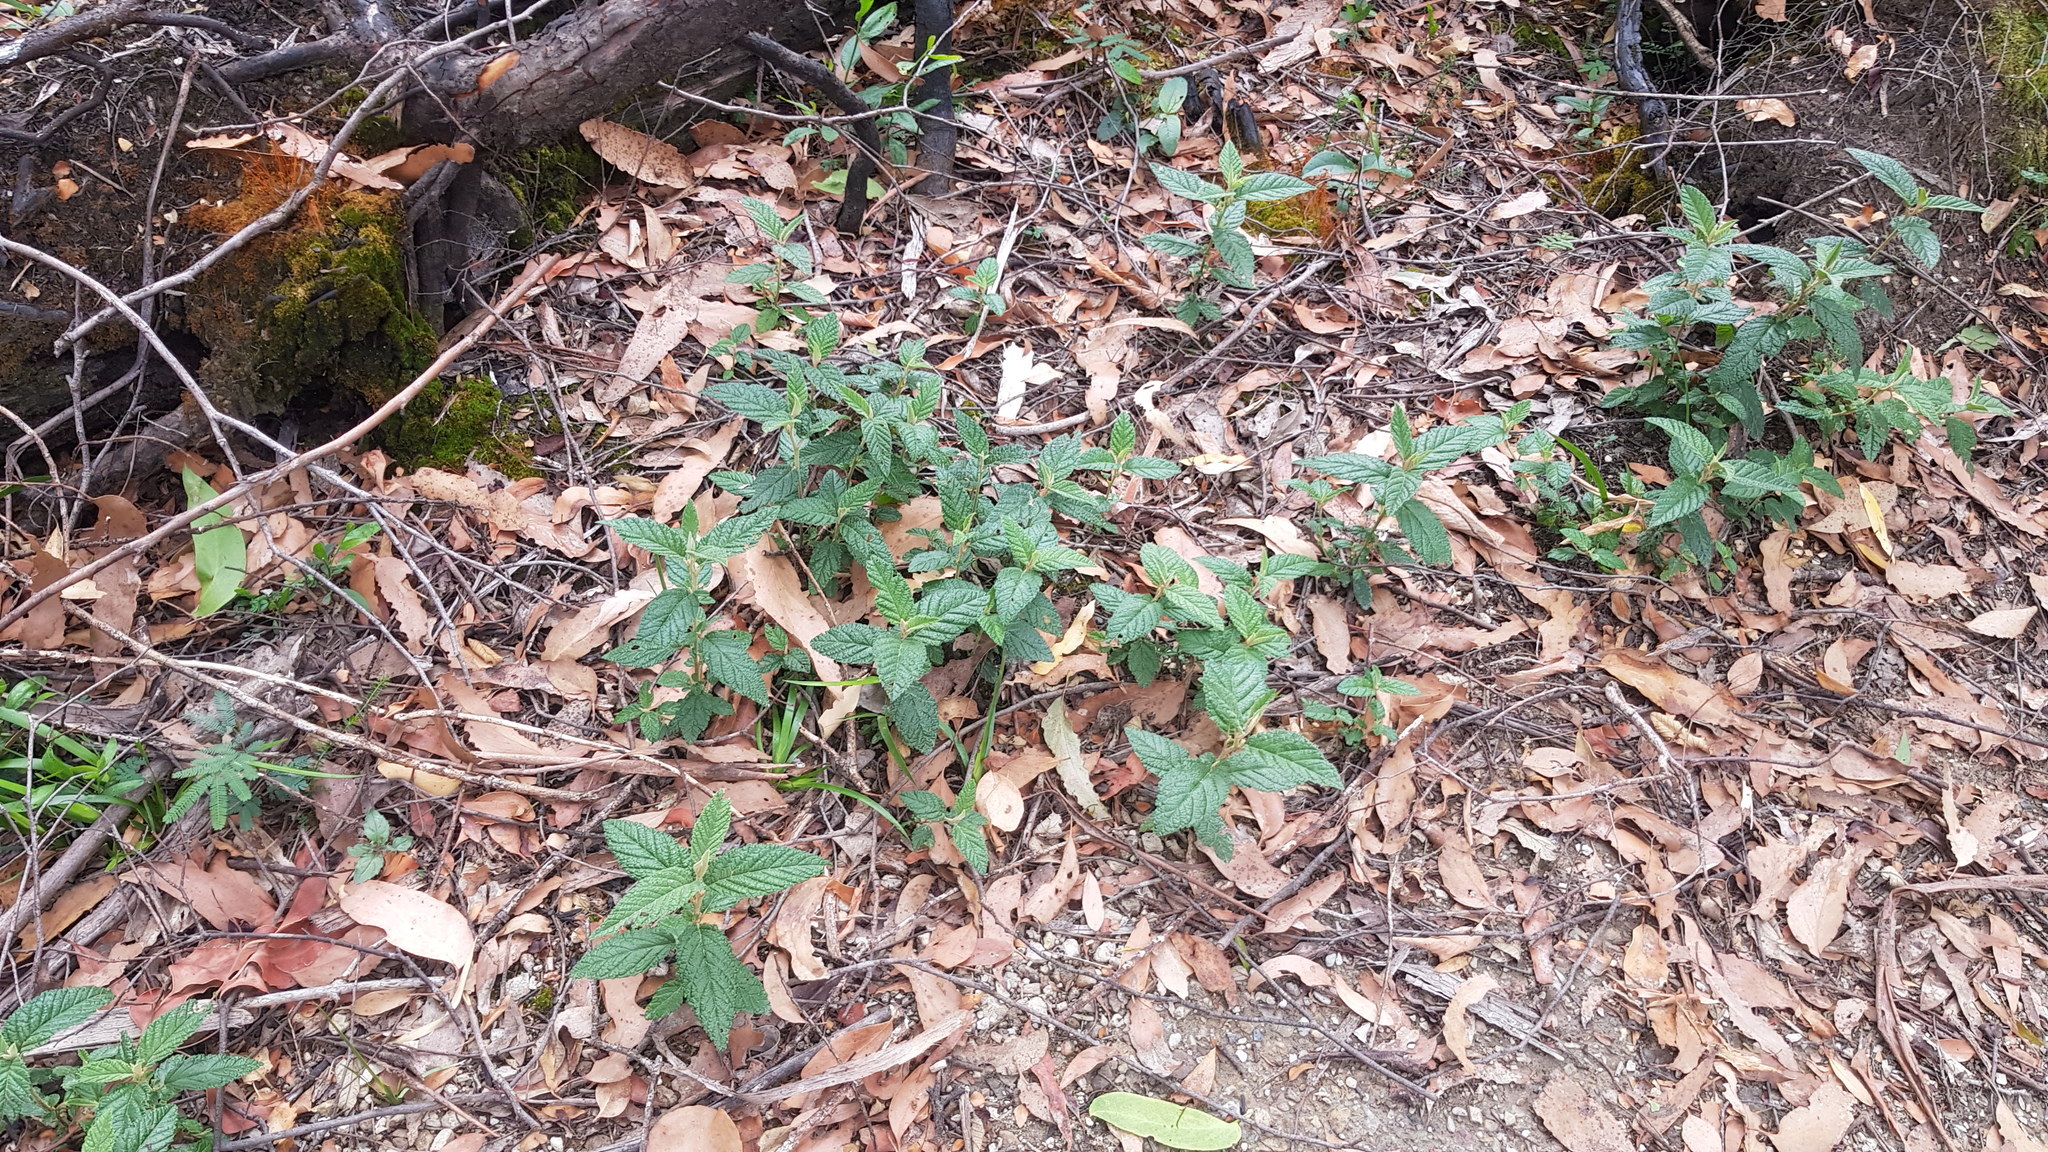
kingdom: Plantae
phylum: Tracheophyta
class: Magnoliopsida
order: Rosales
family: Rhamnaceae
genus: Pomaderris
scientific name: Pomaderris apetala
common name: Hazel pomaderris
